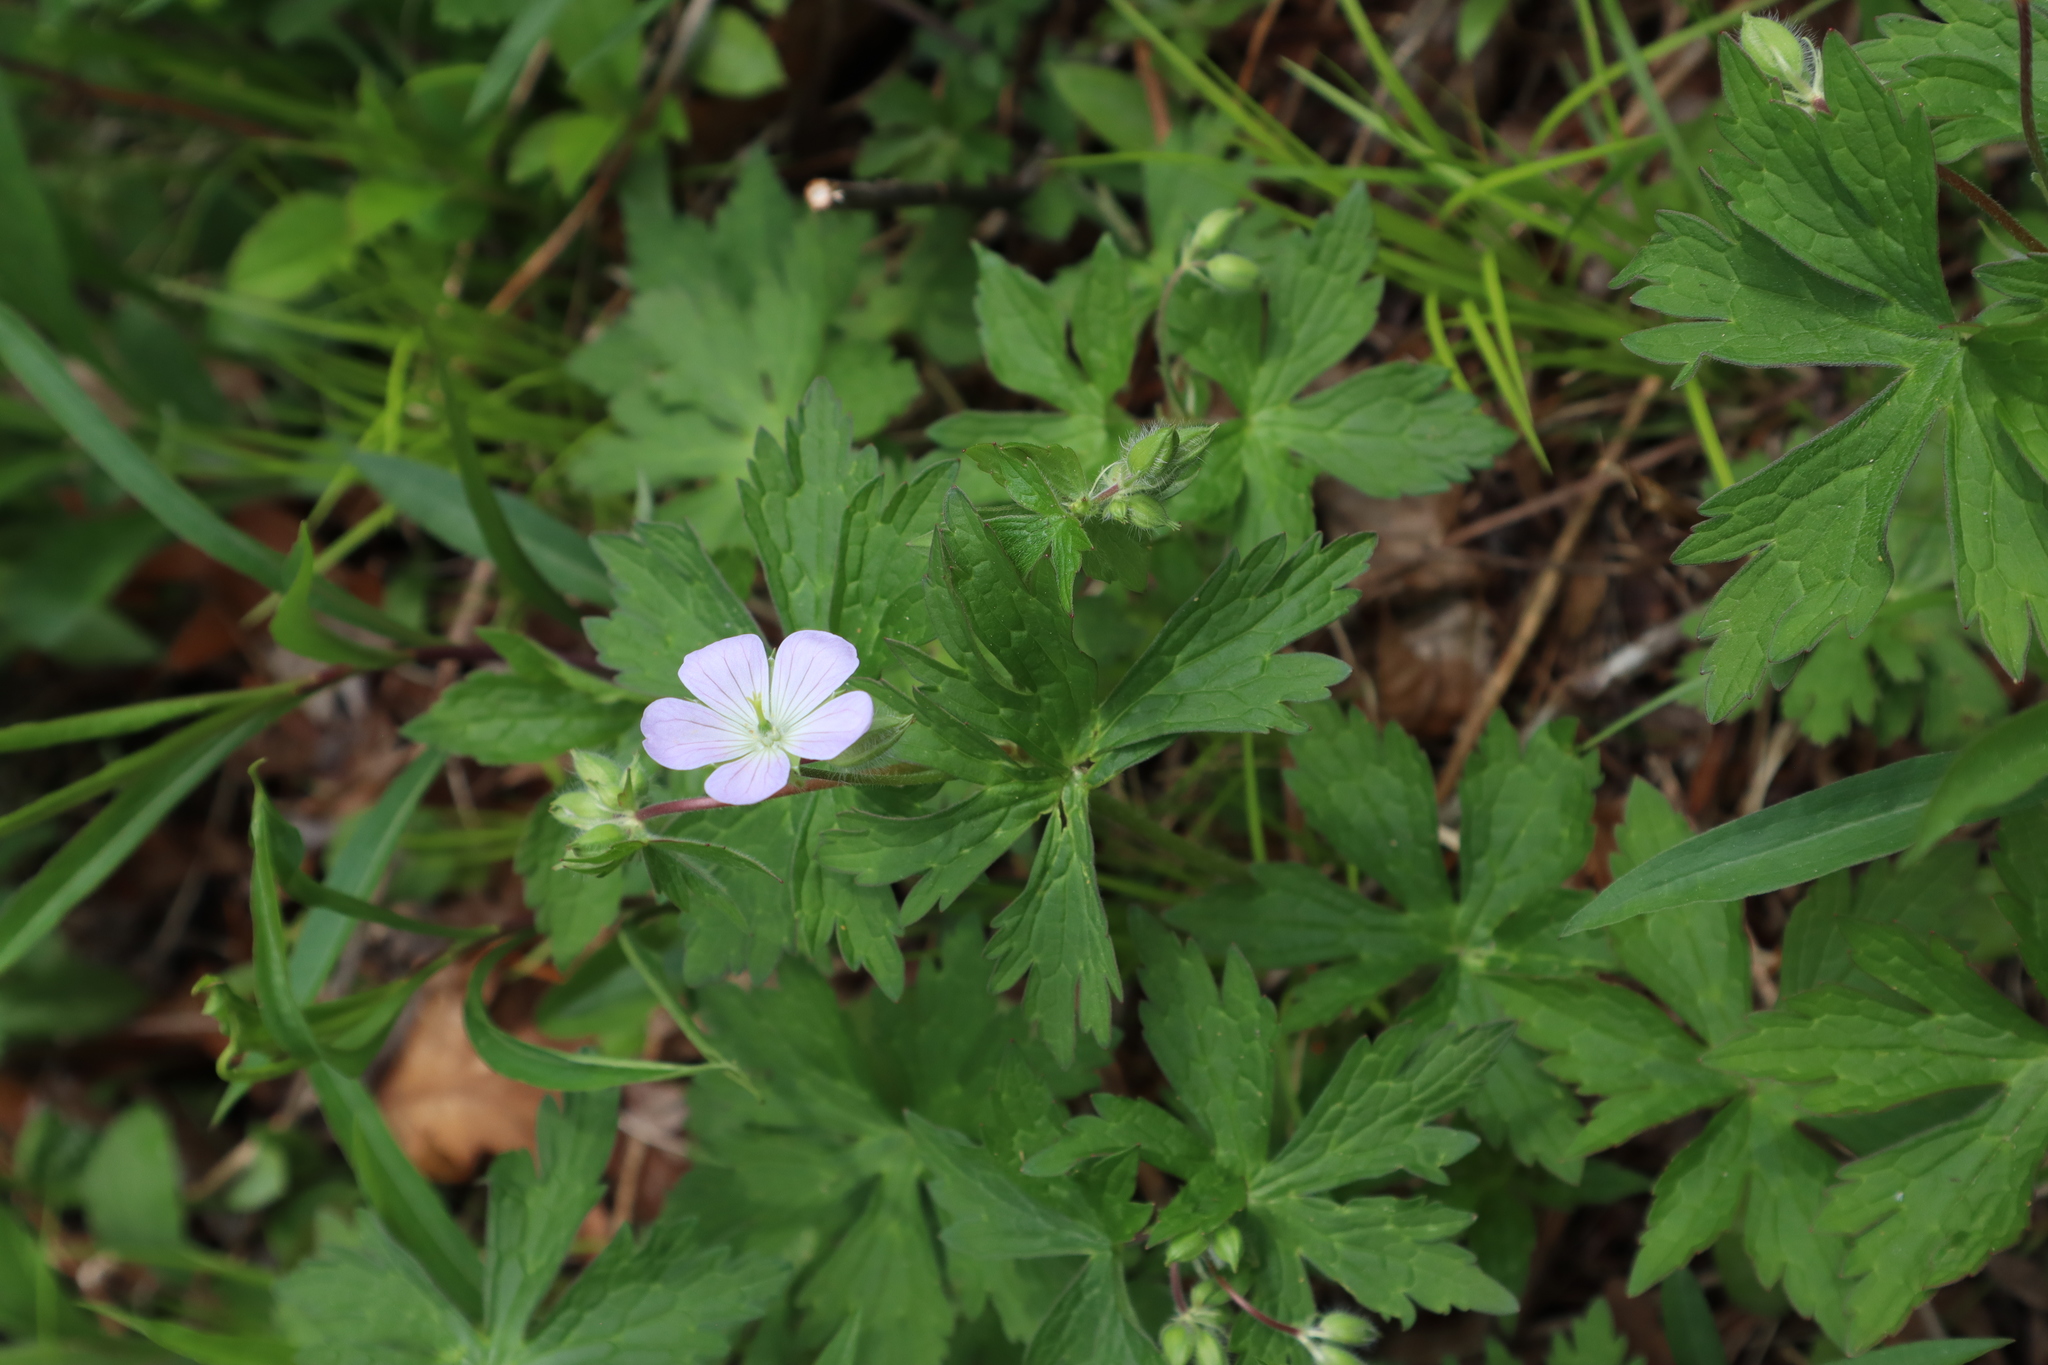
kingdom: Plantae
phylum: Tracheophyta
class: Magnoliopsida
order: Geraniales
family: Geraniaceae
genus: Geranium
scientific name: Geranium maculatum
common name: Spotted geranium
